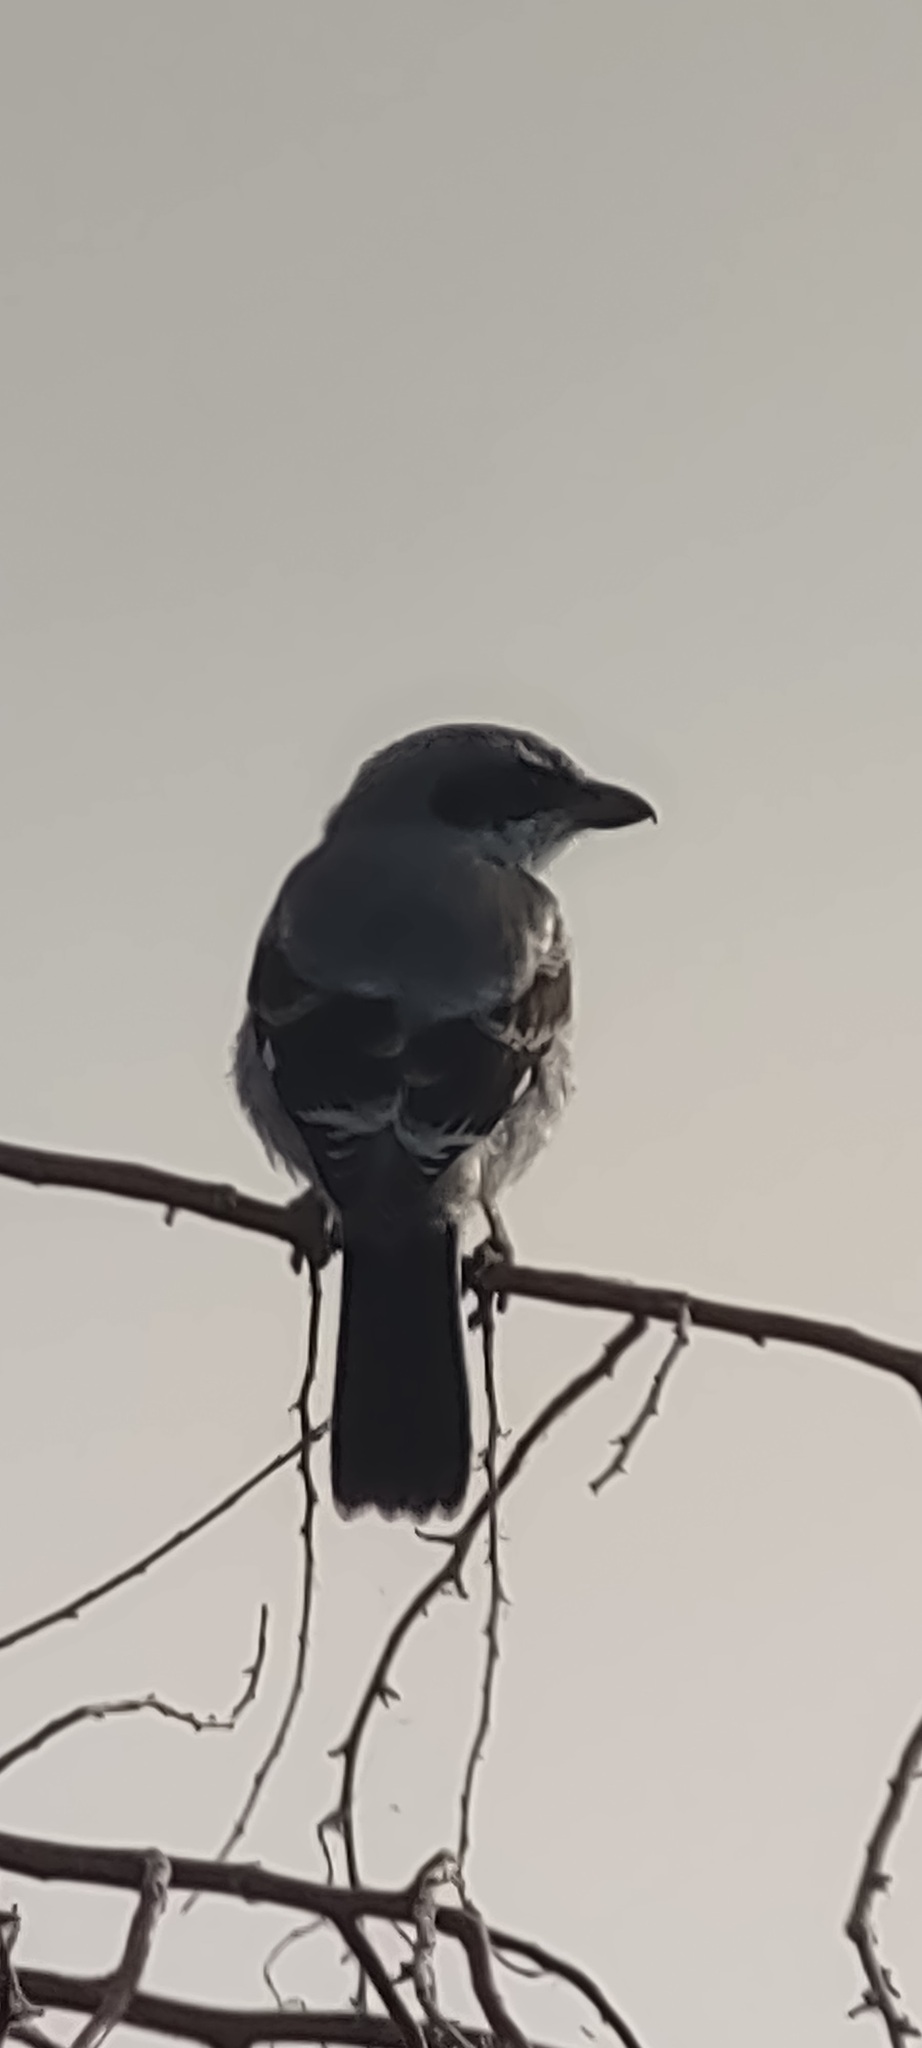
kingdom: Animalia
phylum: Chordata
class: Aves
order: Passeriformes
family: Laniidae
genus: Lanius
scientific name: Lanius ludovicianus
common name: Loggerhead shrike
